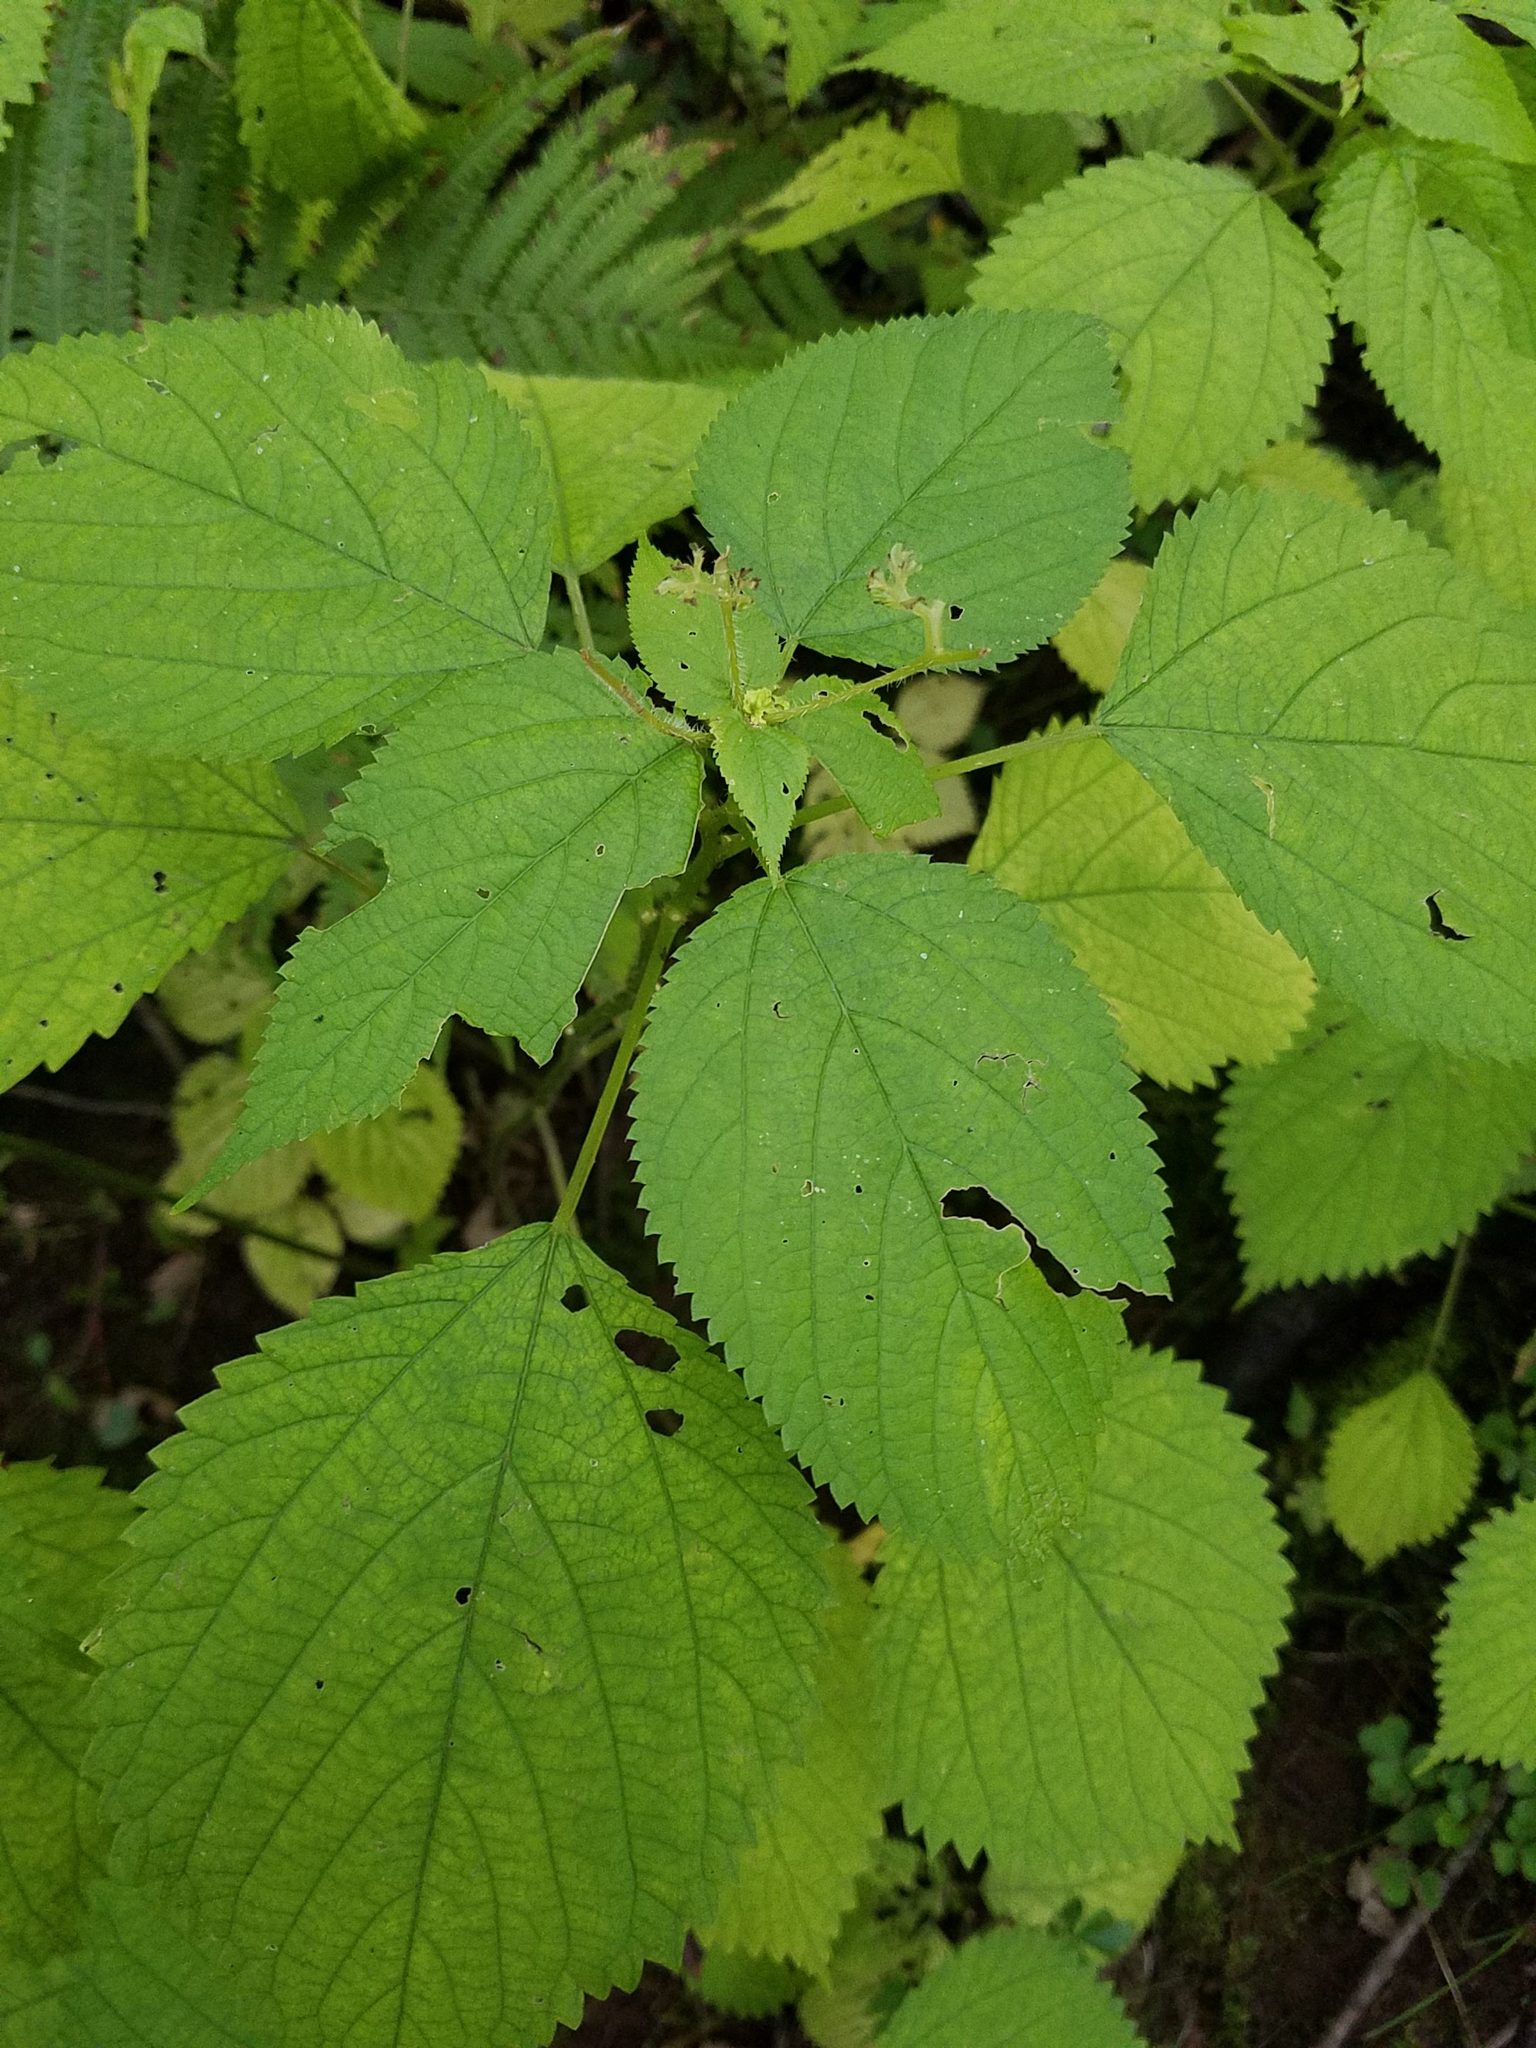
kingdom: Plantae
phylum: Tracheophyta
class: Magnoliopsida
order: Rosales
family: Urticaceae
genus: Laportea
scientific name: Laportea canadensis
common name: Canada nettle
